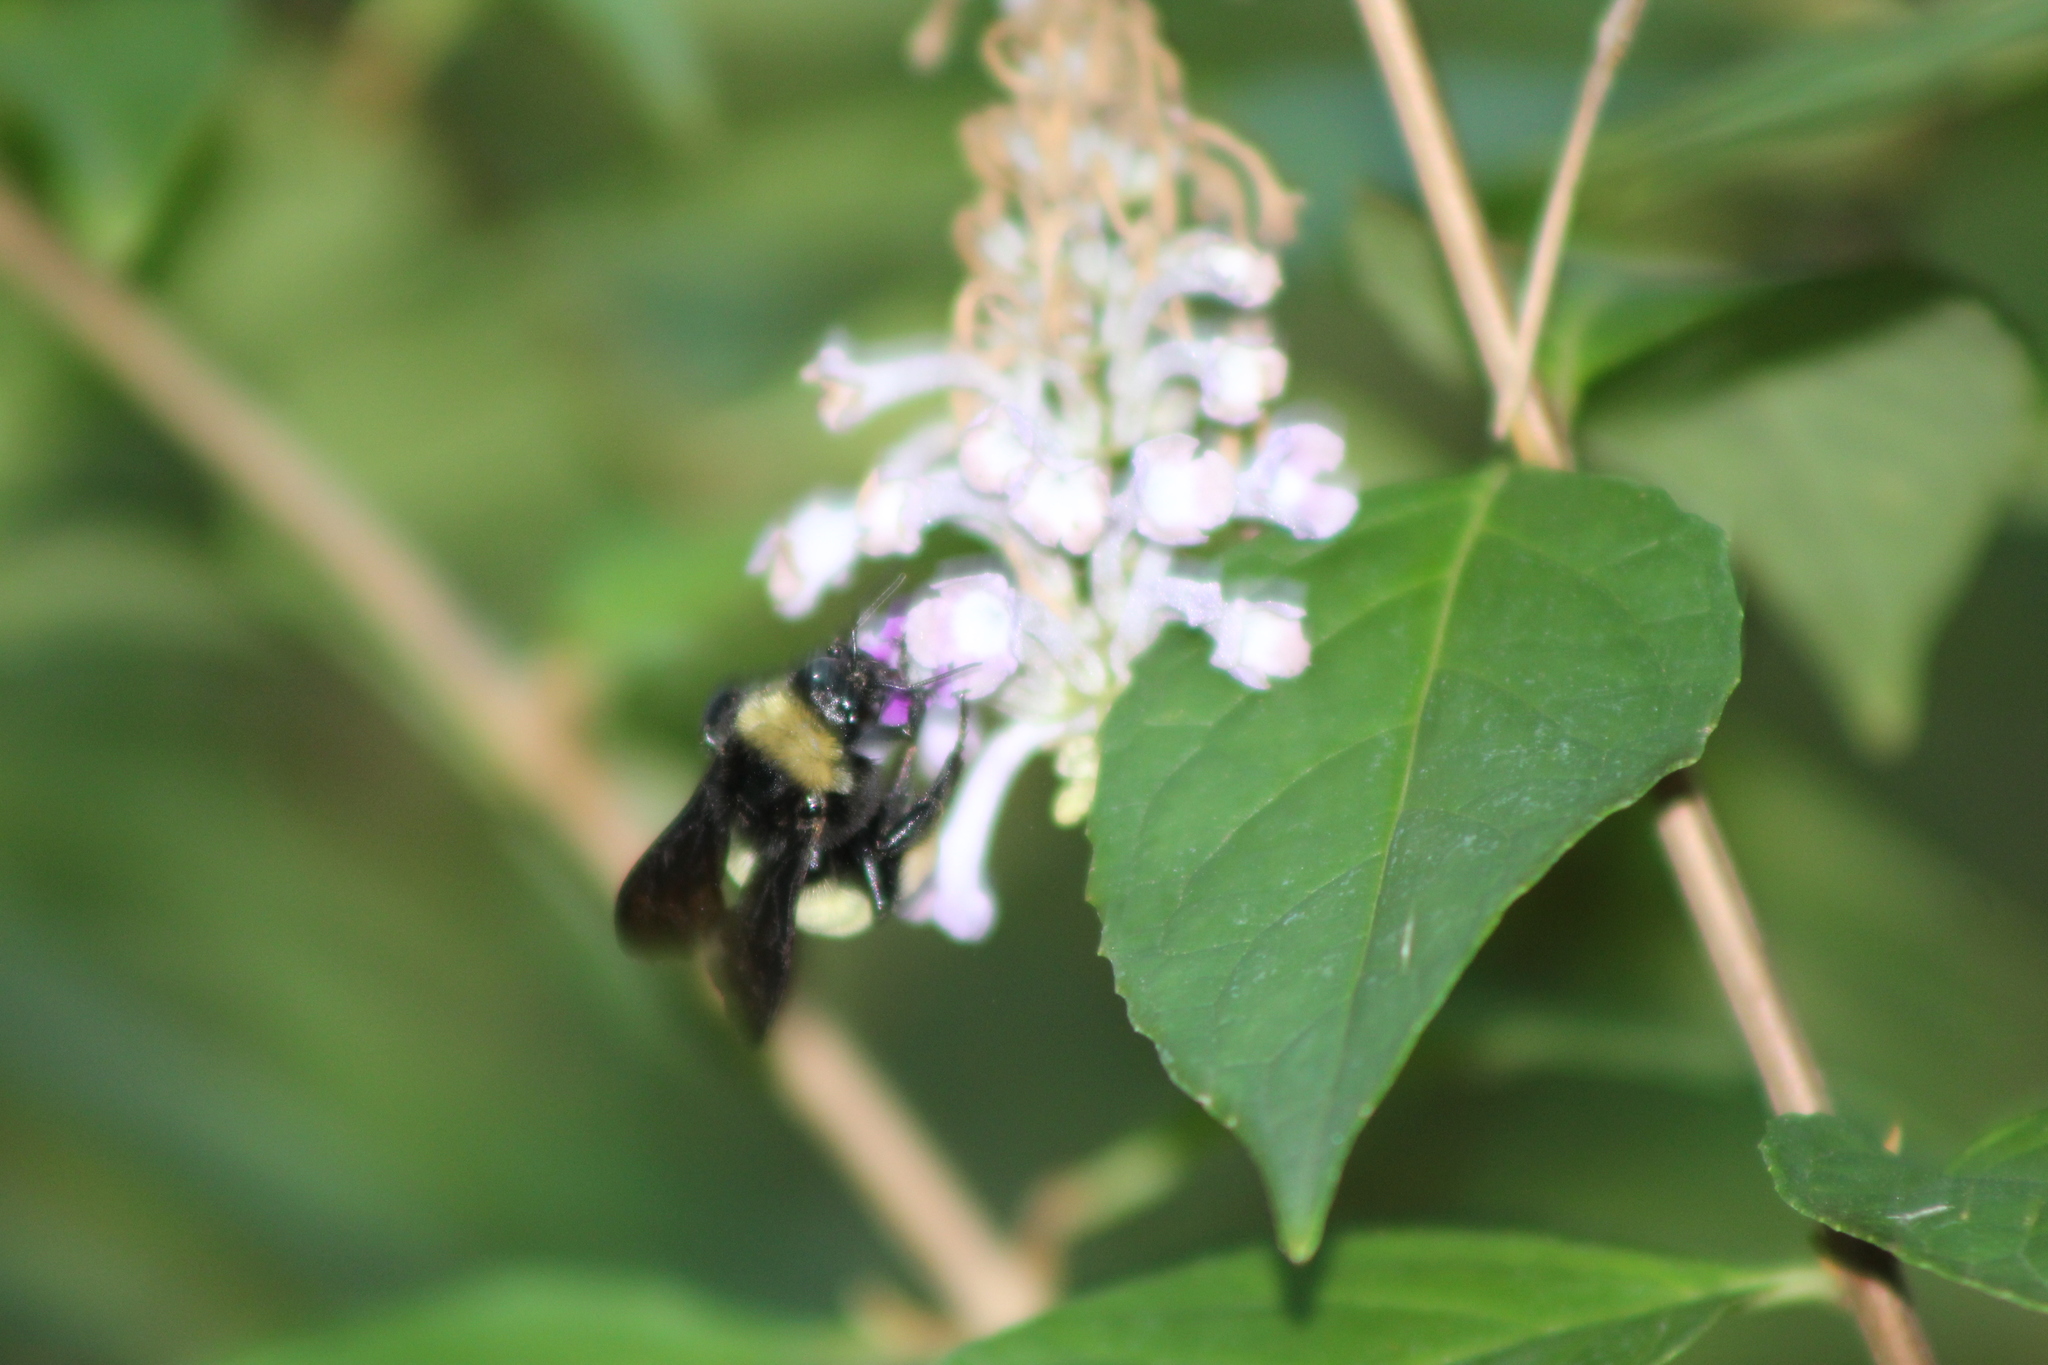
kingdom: Animalia
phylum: Arthropoda
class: Insecta
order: Hymenoptera
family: Apidae
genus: Bombus
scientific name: Bombus pensylvanicus
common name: Bumble bee
